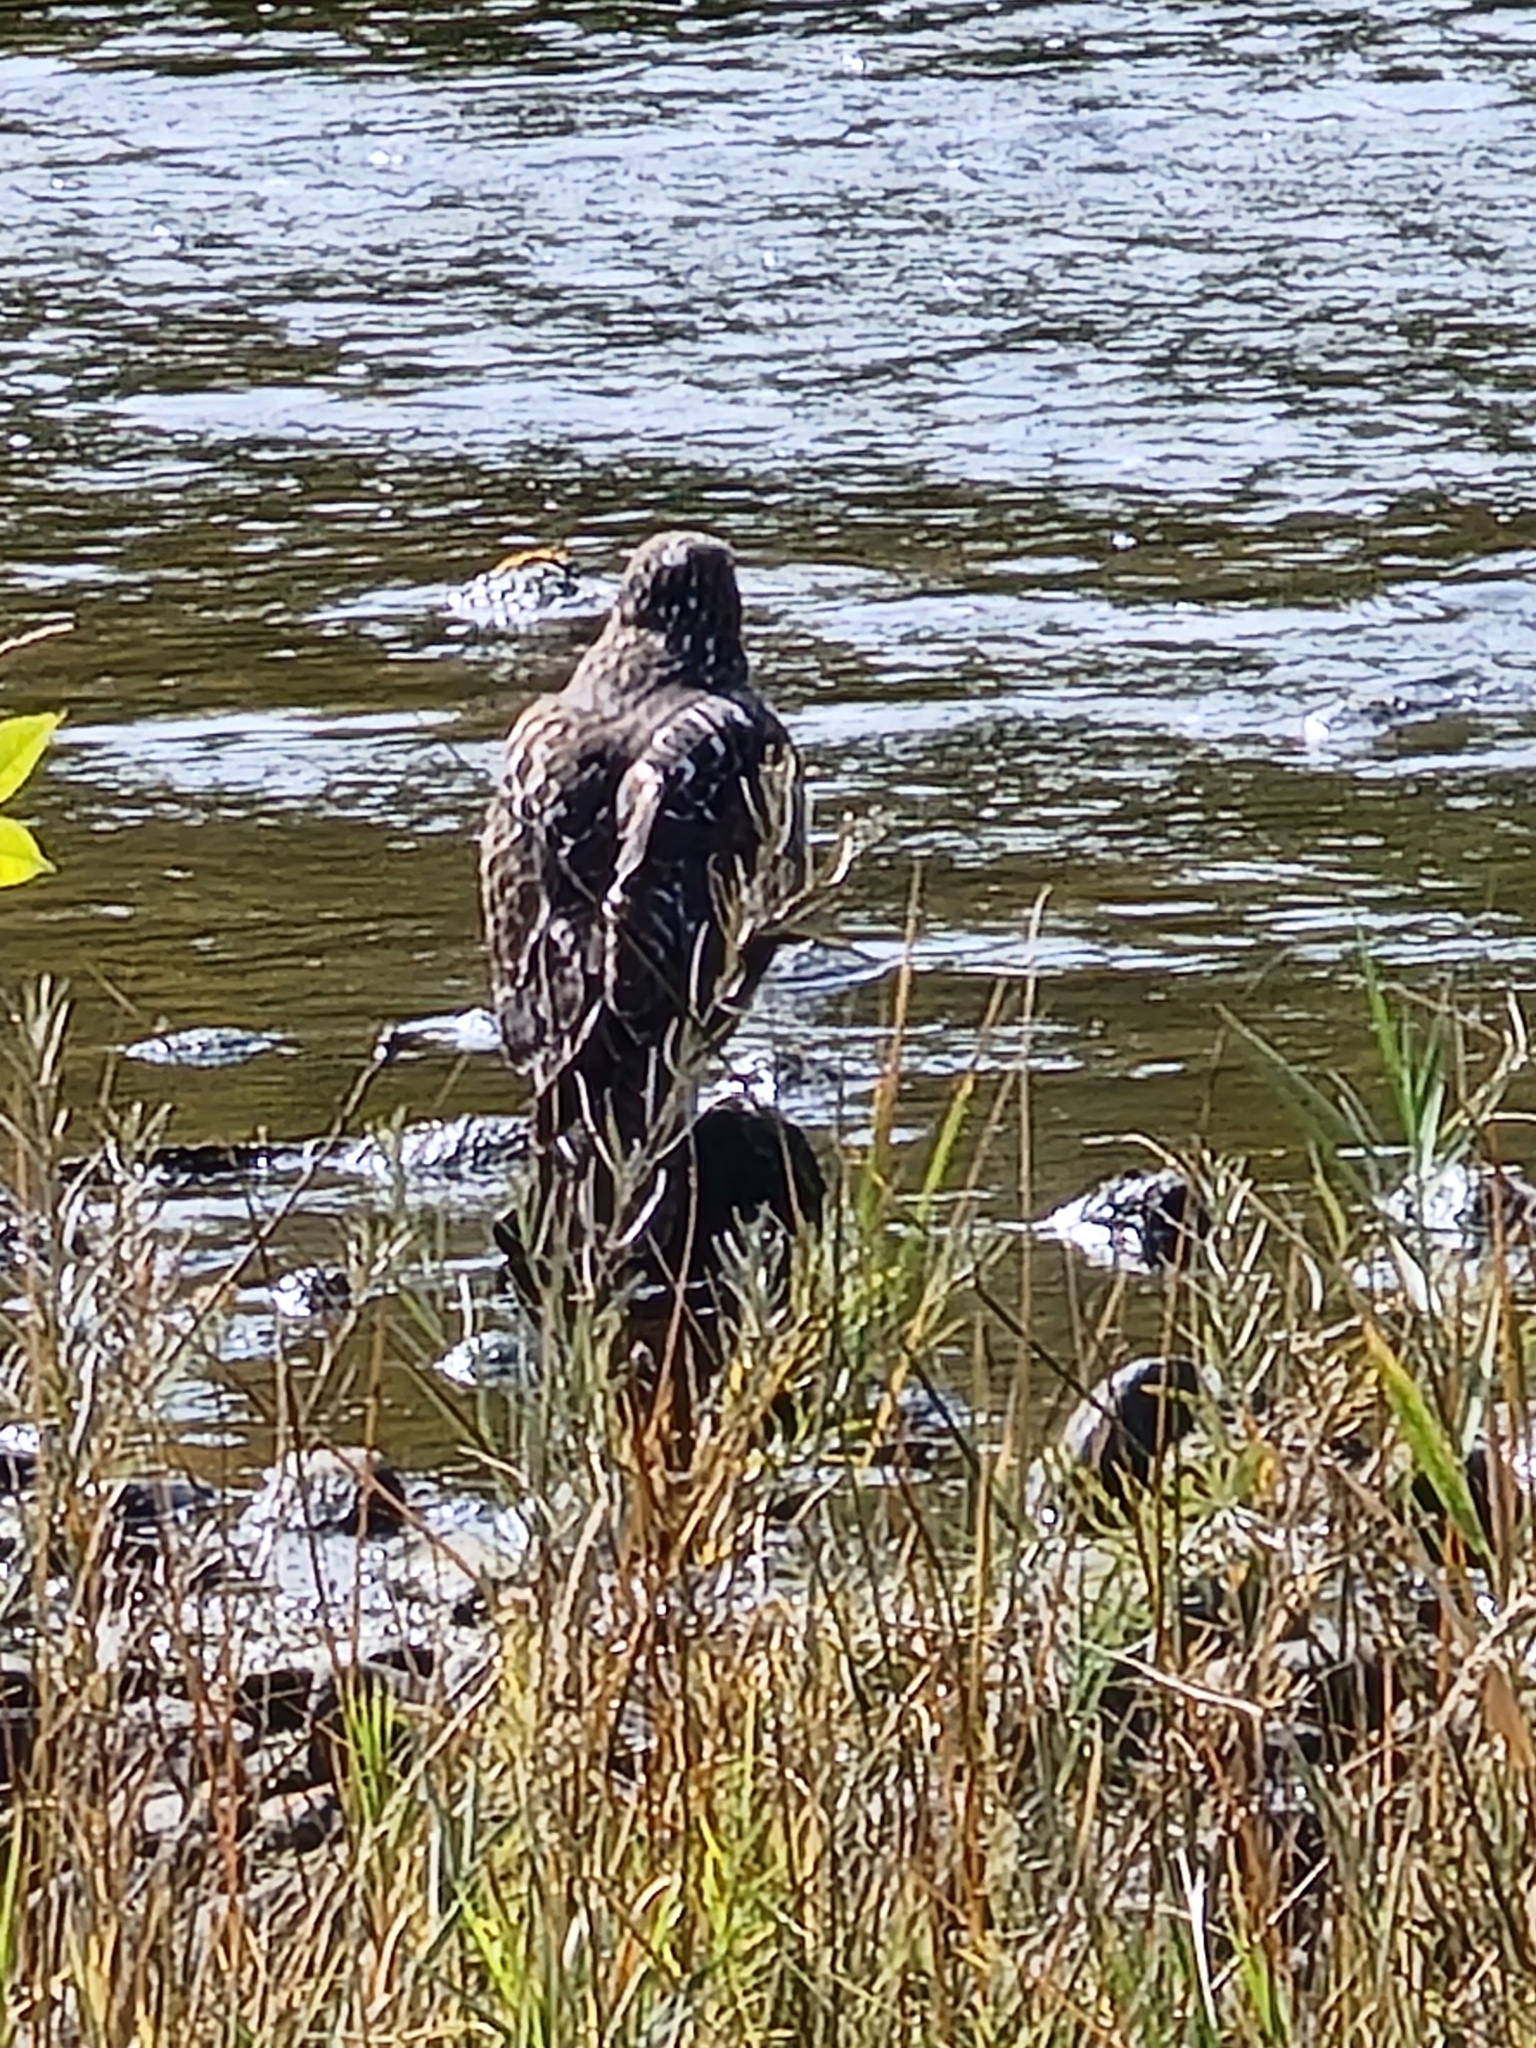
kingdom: Animalia
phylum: Chordata
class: Aves
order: Accipitriformes
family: Accipitridae
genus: Buteo
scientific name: Buteo jamaicensis
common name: Red-tailed hawk
